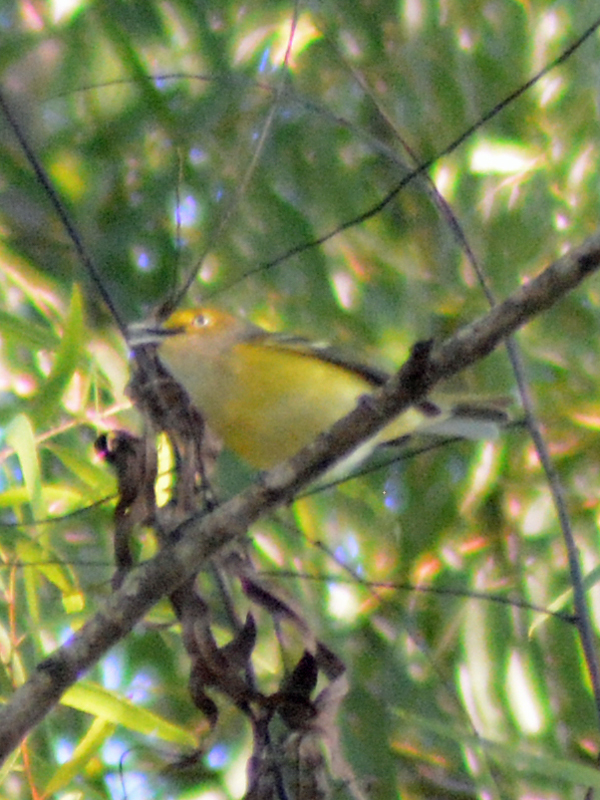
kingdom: Animalia
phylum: Chordata
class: Aves
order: Passeriformes
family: Vireonidae
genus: Vireo
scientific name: Vireo griseus
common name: White-eyed vireo
